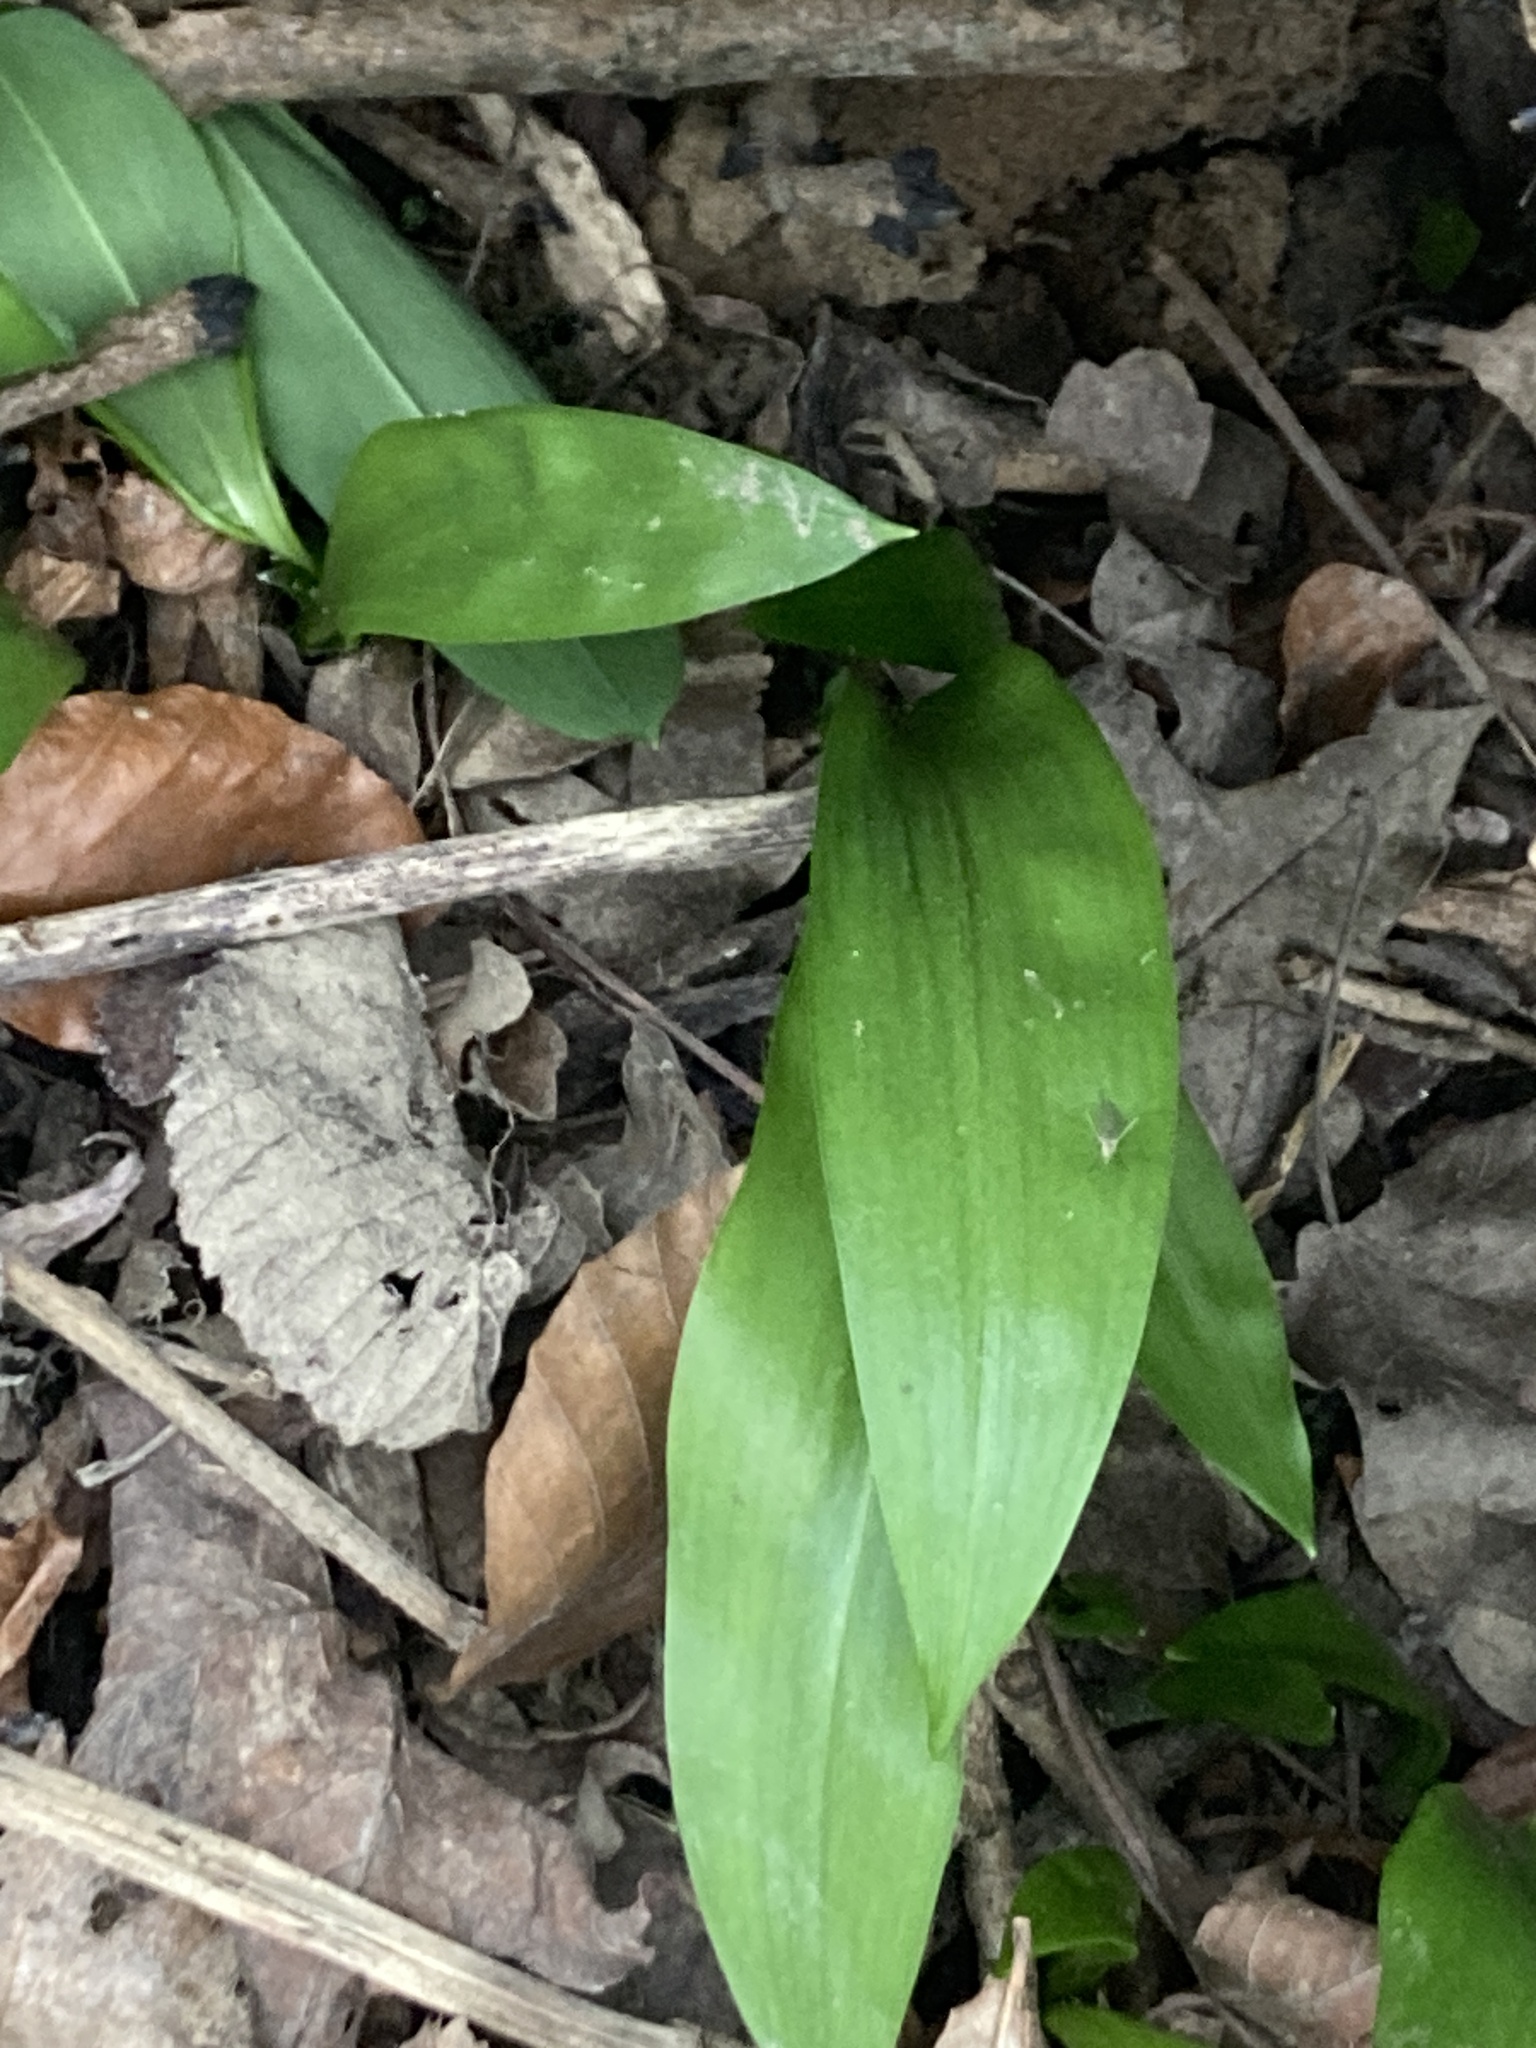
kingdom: Plantae
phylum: Tracheophyta
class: Liliopsida
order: Asparagales
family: Amaryllidaceae
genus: Allium
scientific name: Allium ursinum
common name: Ramsons
